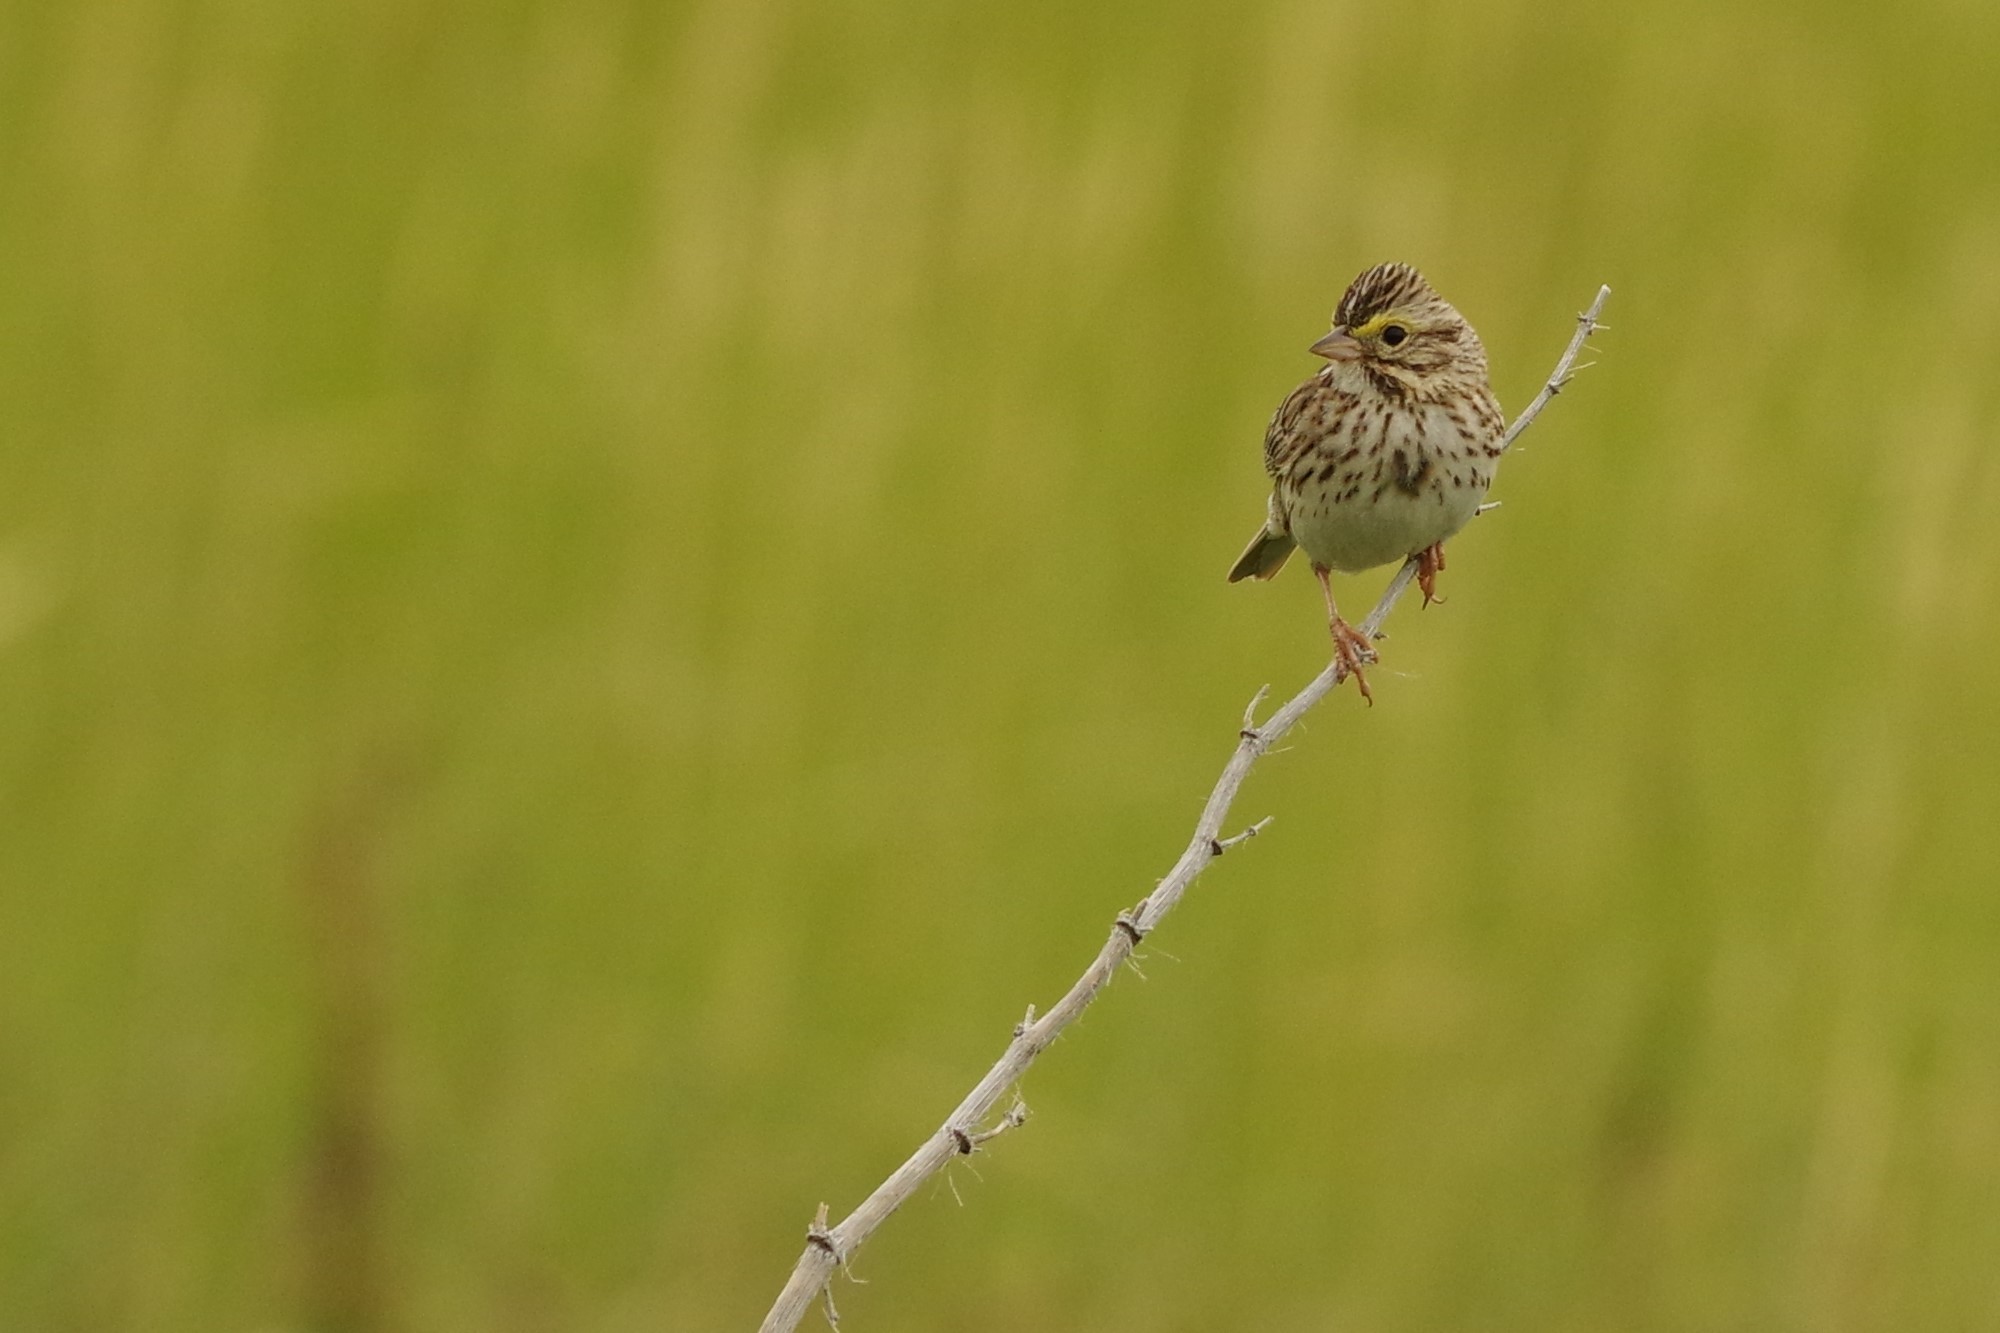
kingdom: Animalia
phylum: Chordata
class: Aves
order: Passeriformes
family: Passerellidae
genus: Passerculus
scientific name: Passerculus sandwichensis
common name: Savannah sparrow
